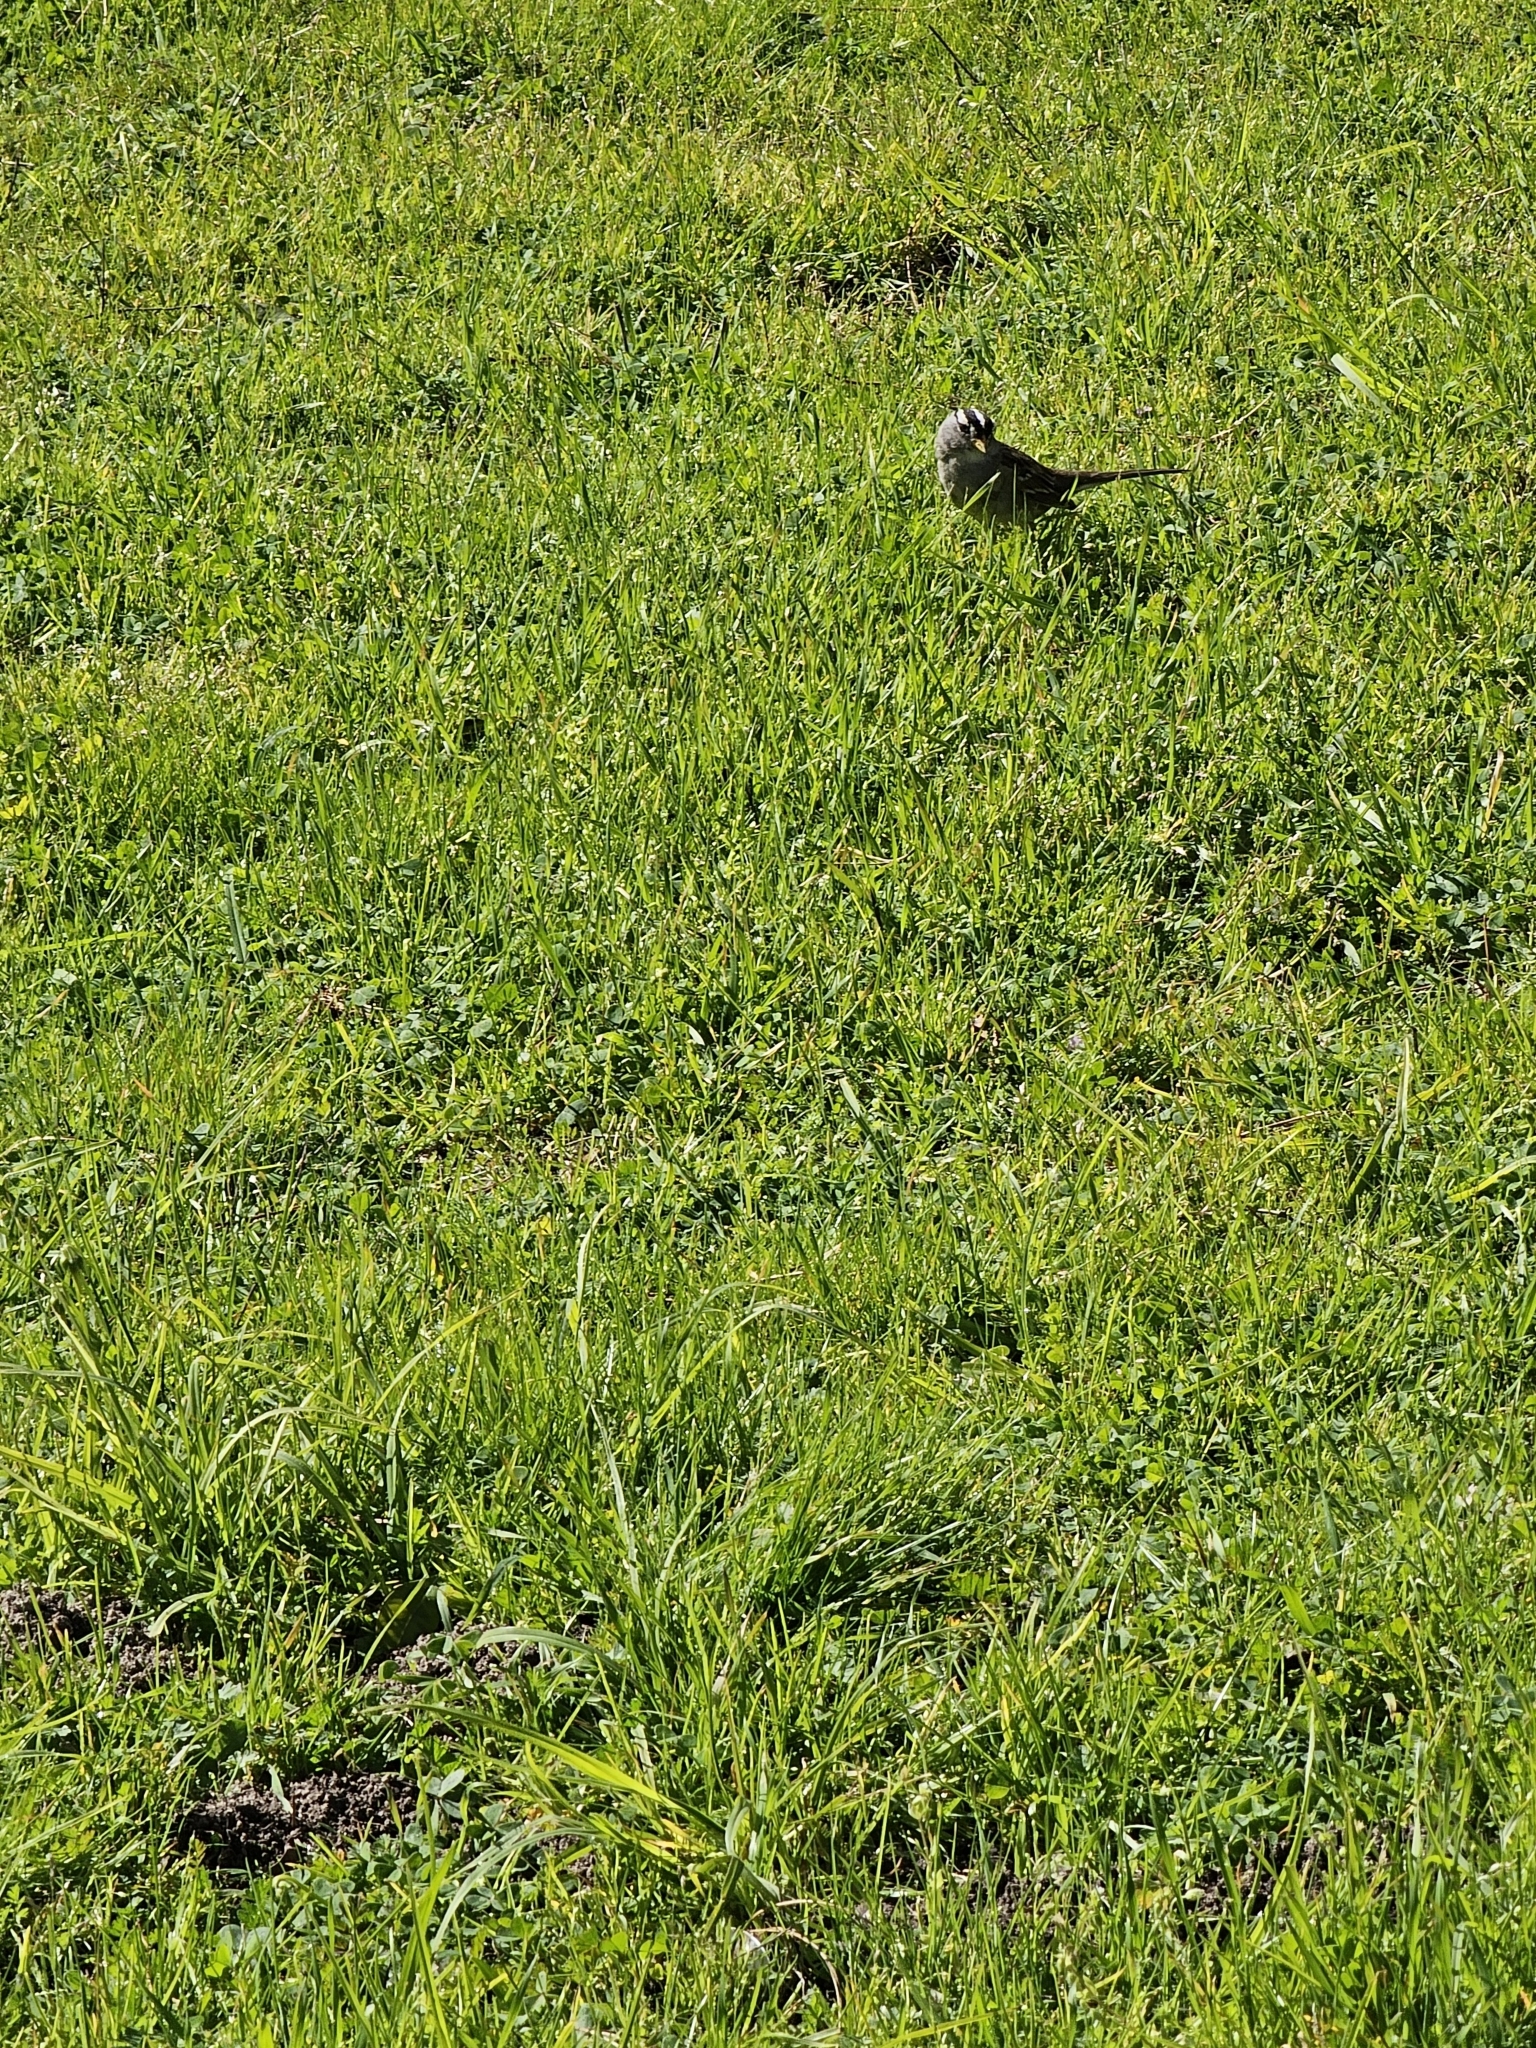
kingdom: Animalia
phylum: Chordata
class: Aves
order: Passeriformes
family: Passerellidae
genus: Zonotrichia
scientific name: Zonotrichia leucophrys
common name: White-crowned sparrow
